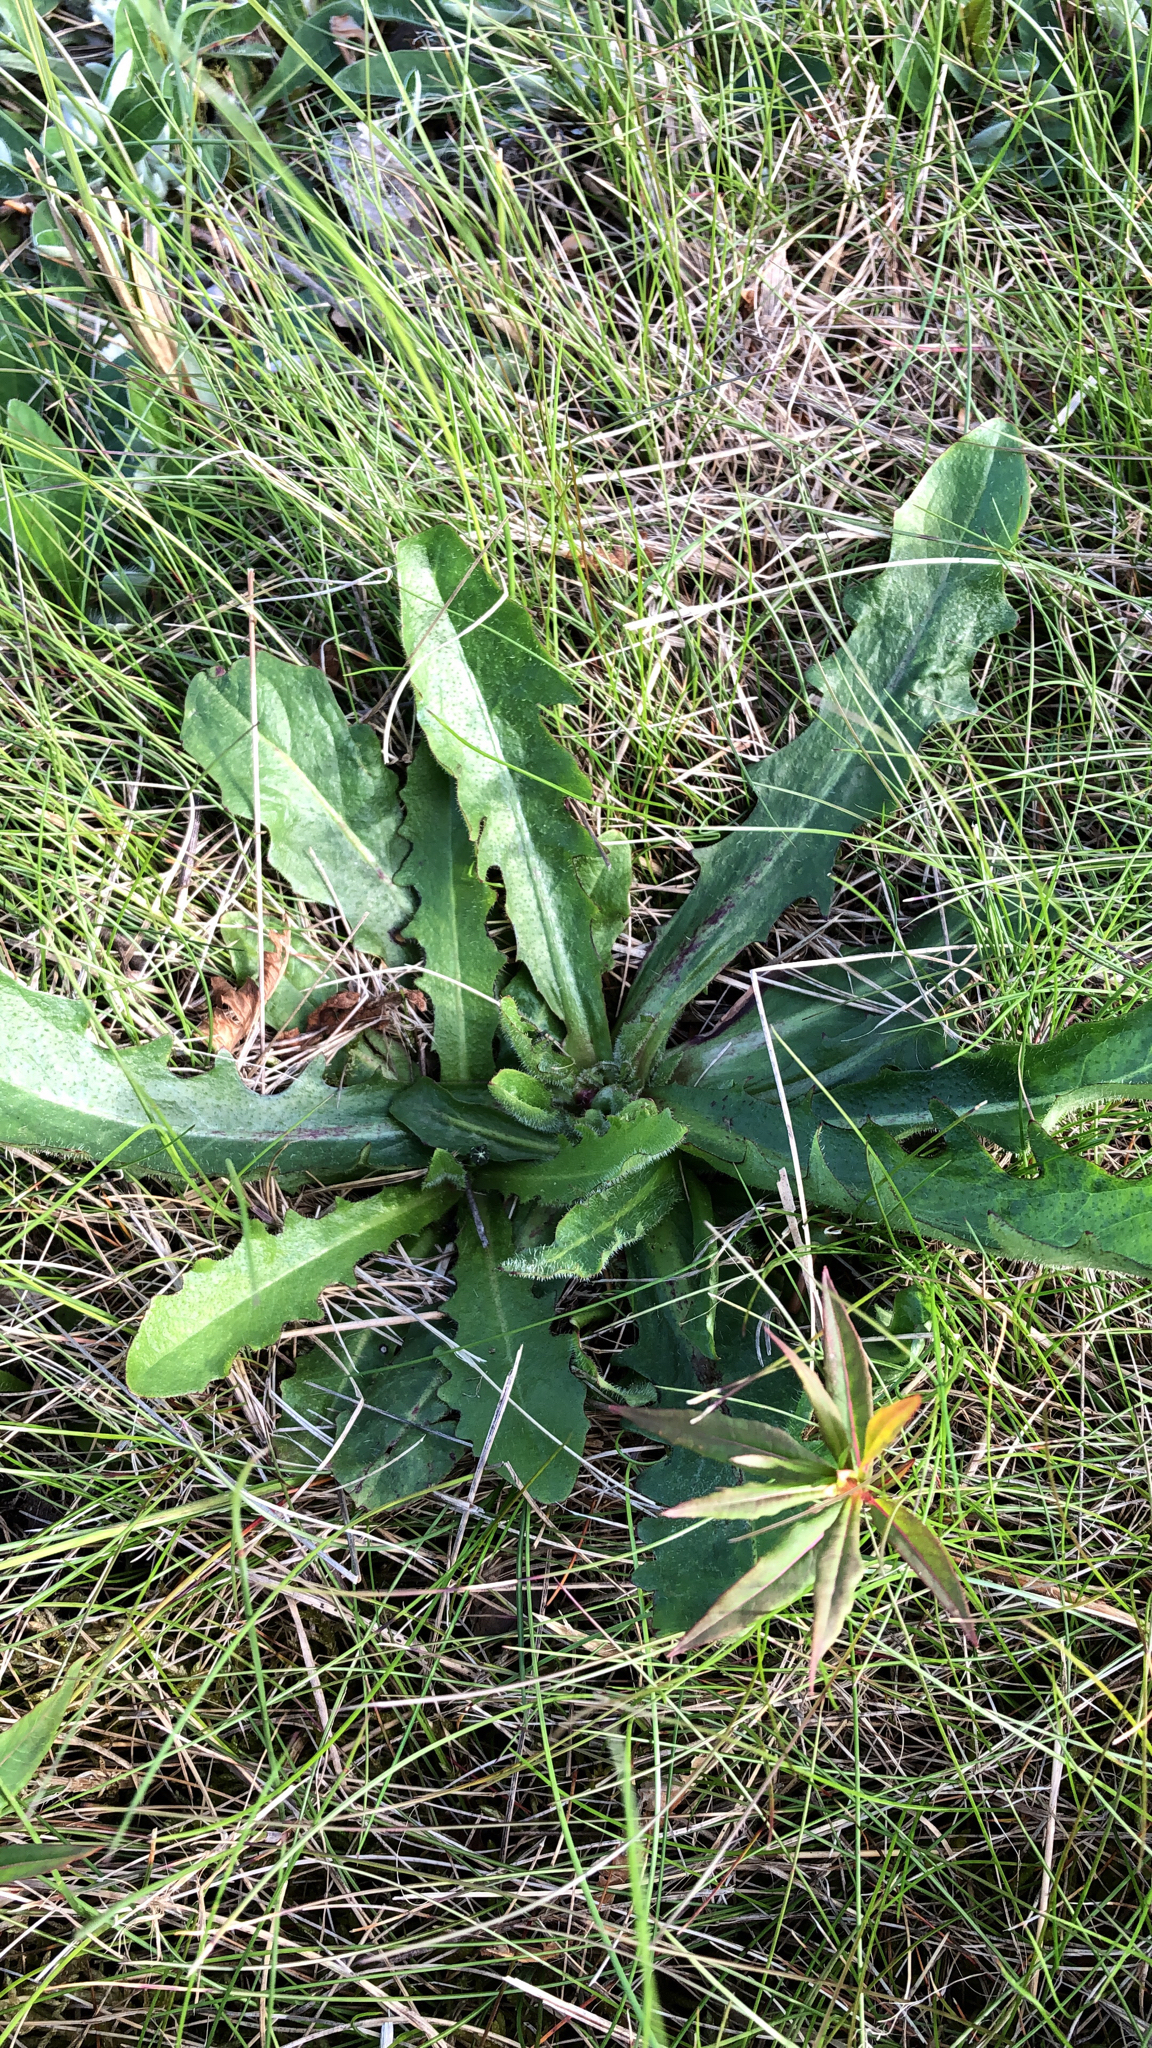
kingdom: Plantae
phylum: Tracheophyta
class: Magnoliopsida
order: Asterales
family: Asteraceae
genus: Hypochaeris
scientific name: Hypochaeris radicata
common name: Flatweed
